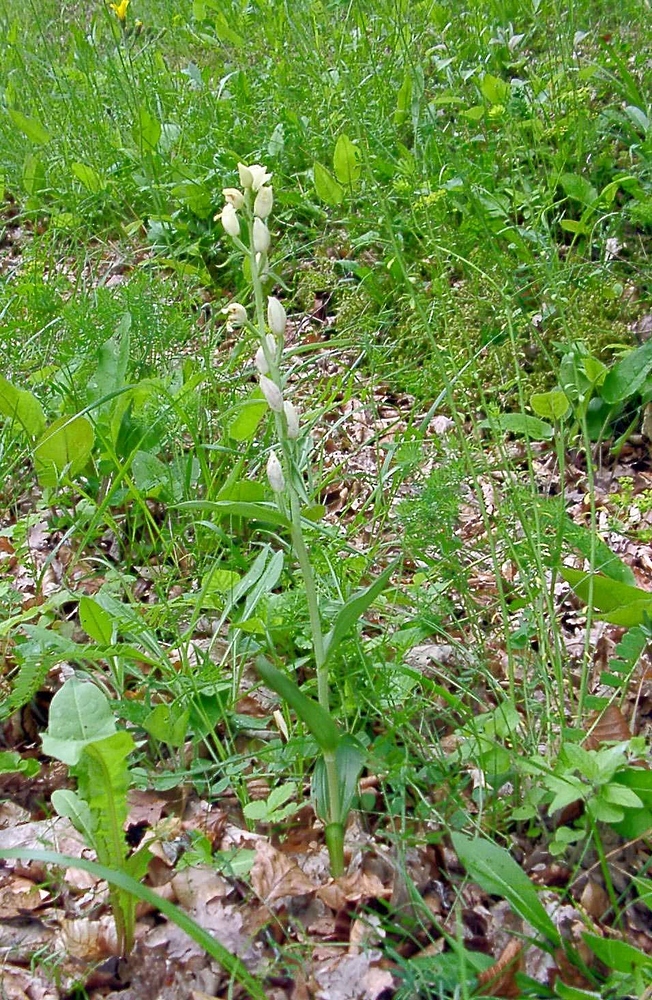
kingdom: Plantae
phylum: Tracheophyta
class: Liliopsida
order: Asparagales
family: Orchidaceae
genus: Cephalanthera
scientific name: Cephalanthera damasonium
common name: White helleborine
